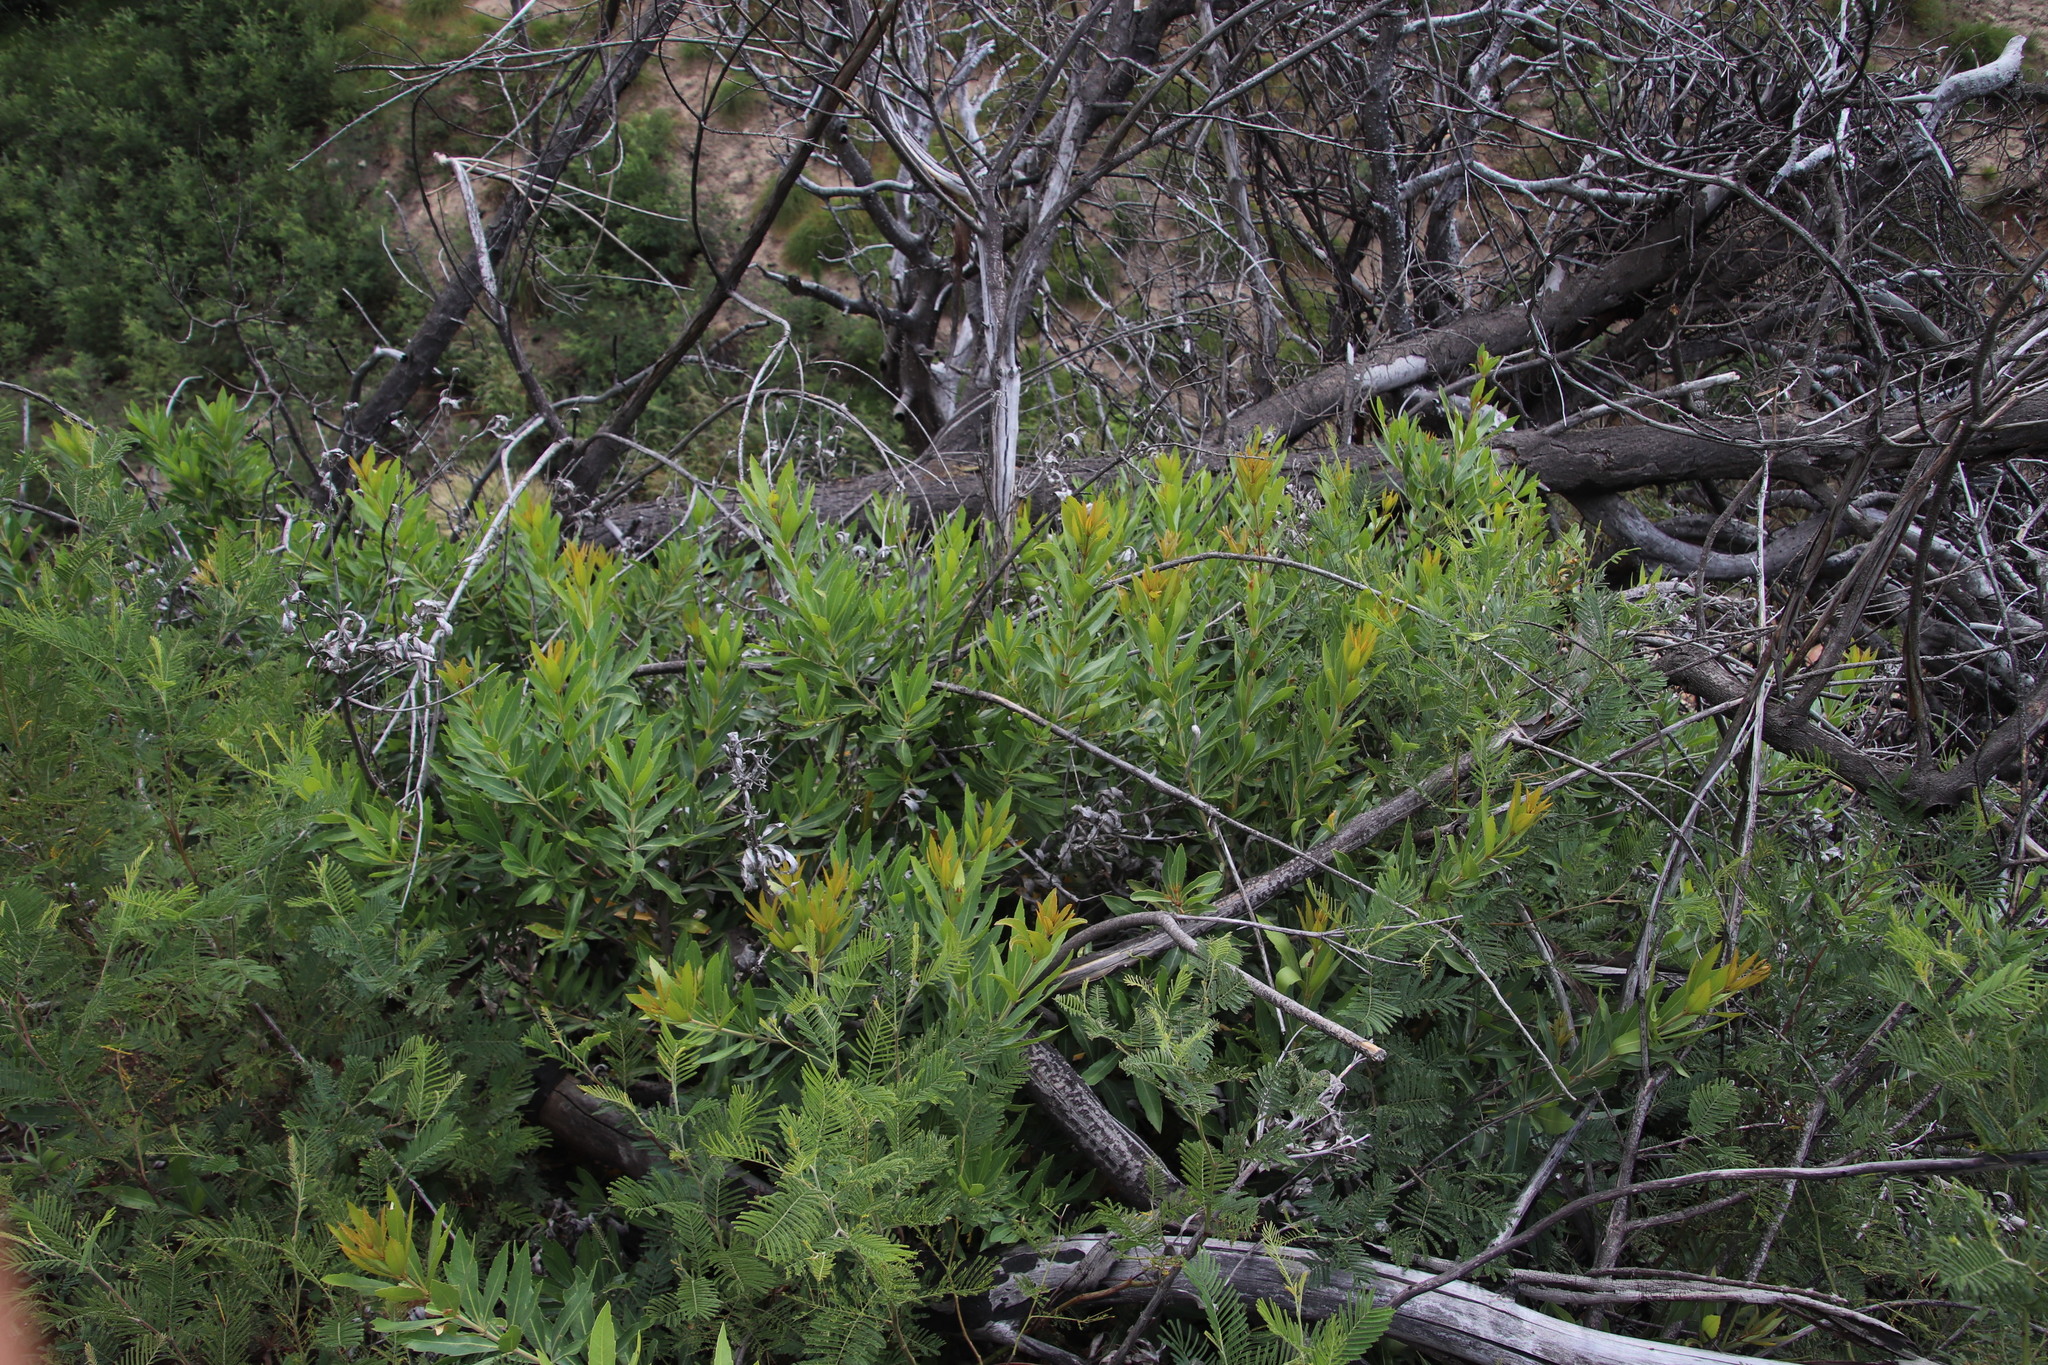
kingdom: Plantae
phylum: Tracheophyta
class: Magnoliopsida
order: Proteales
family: Proteaceae
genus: Brabejum
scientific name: Brabejum stellatifolium
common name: Wild almond
